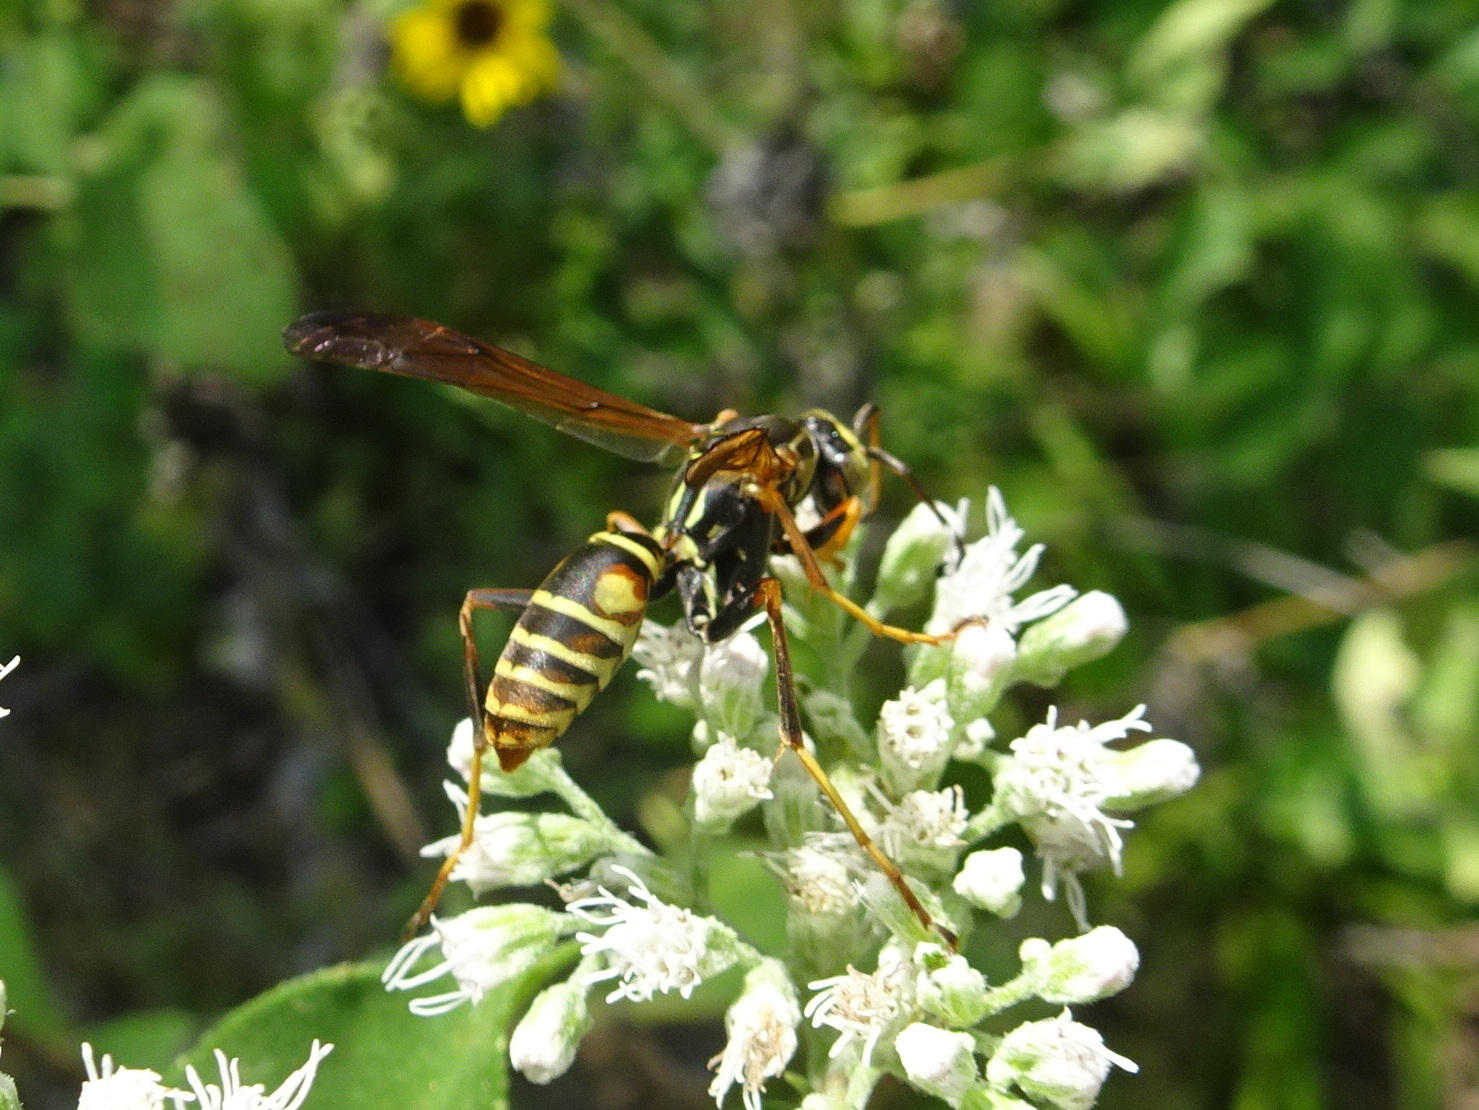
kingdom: Animalia
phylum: Arthropoda
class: Insecta
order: Hymenoptera
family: Eumenidae
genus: Polistes
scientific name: Polistes fuscatus
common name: Dark paper wasp
